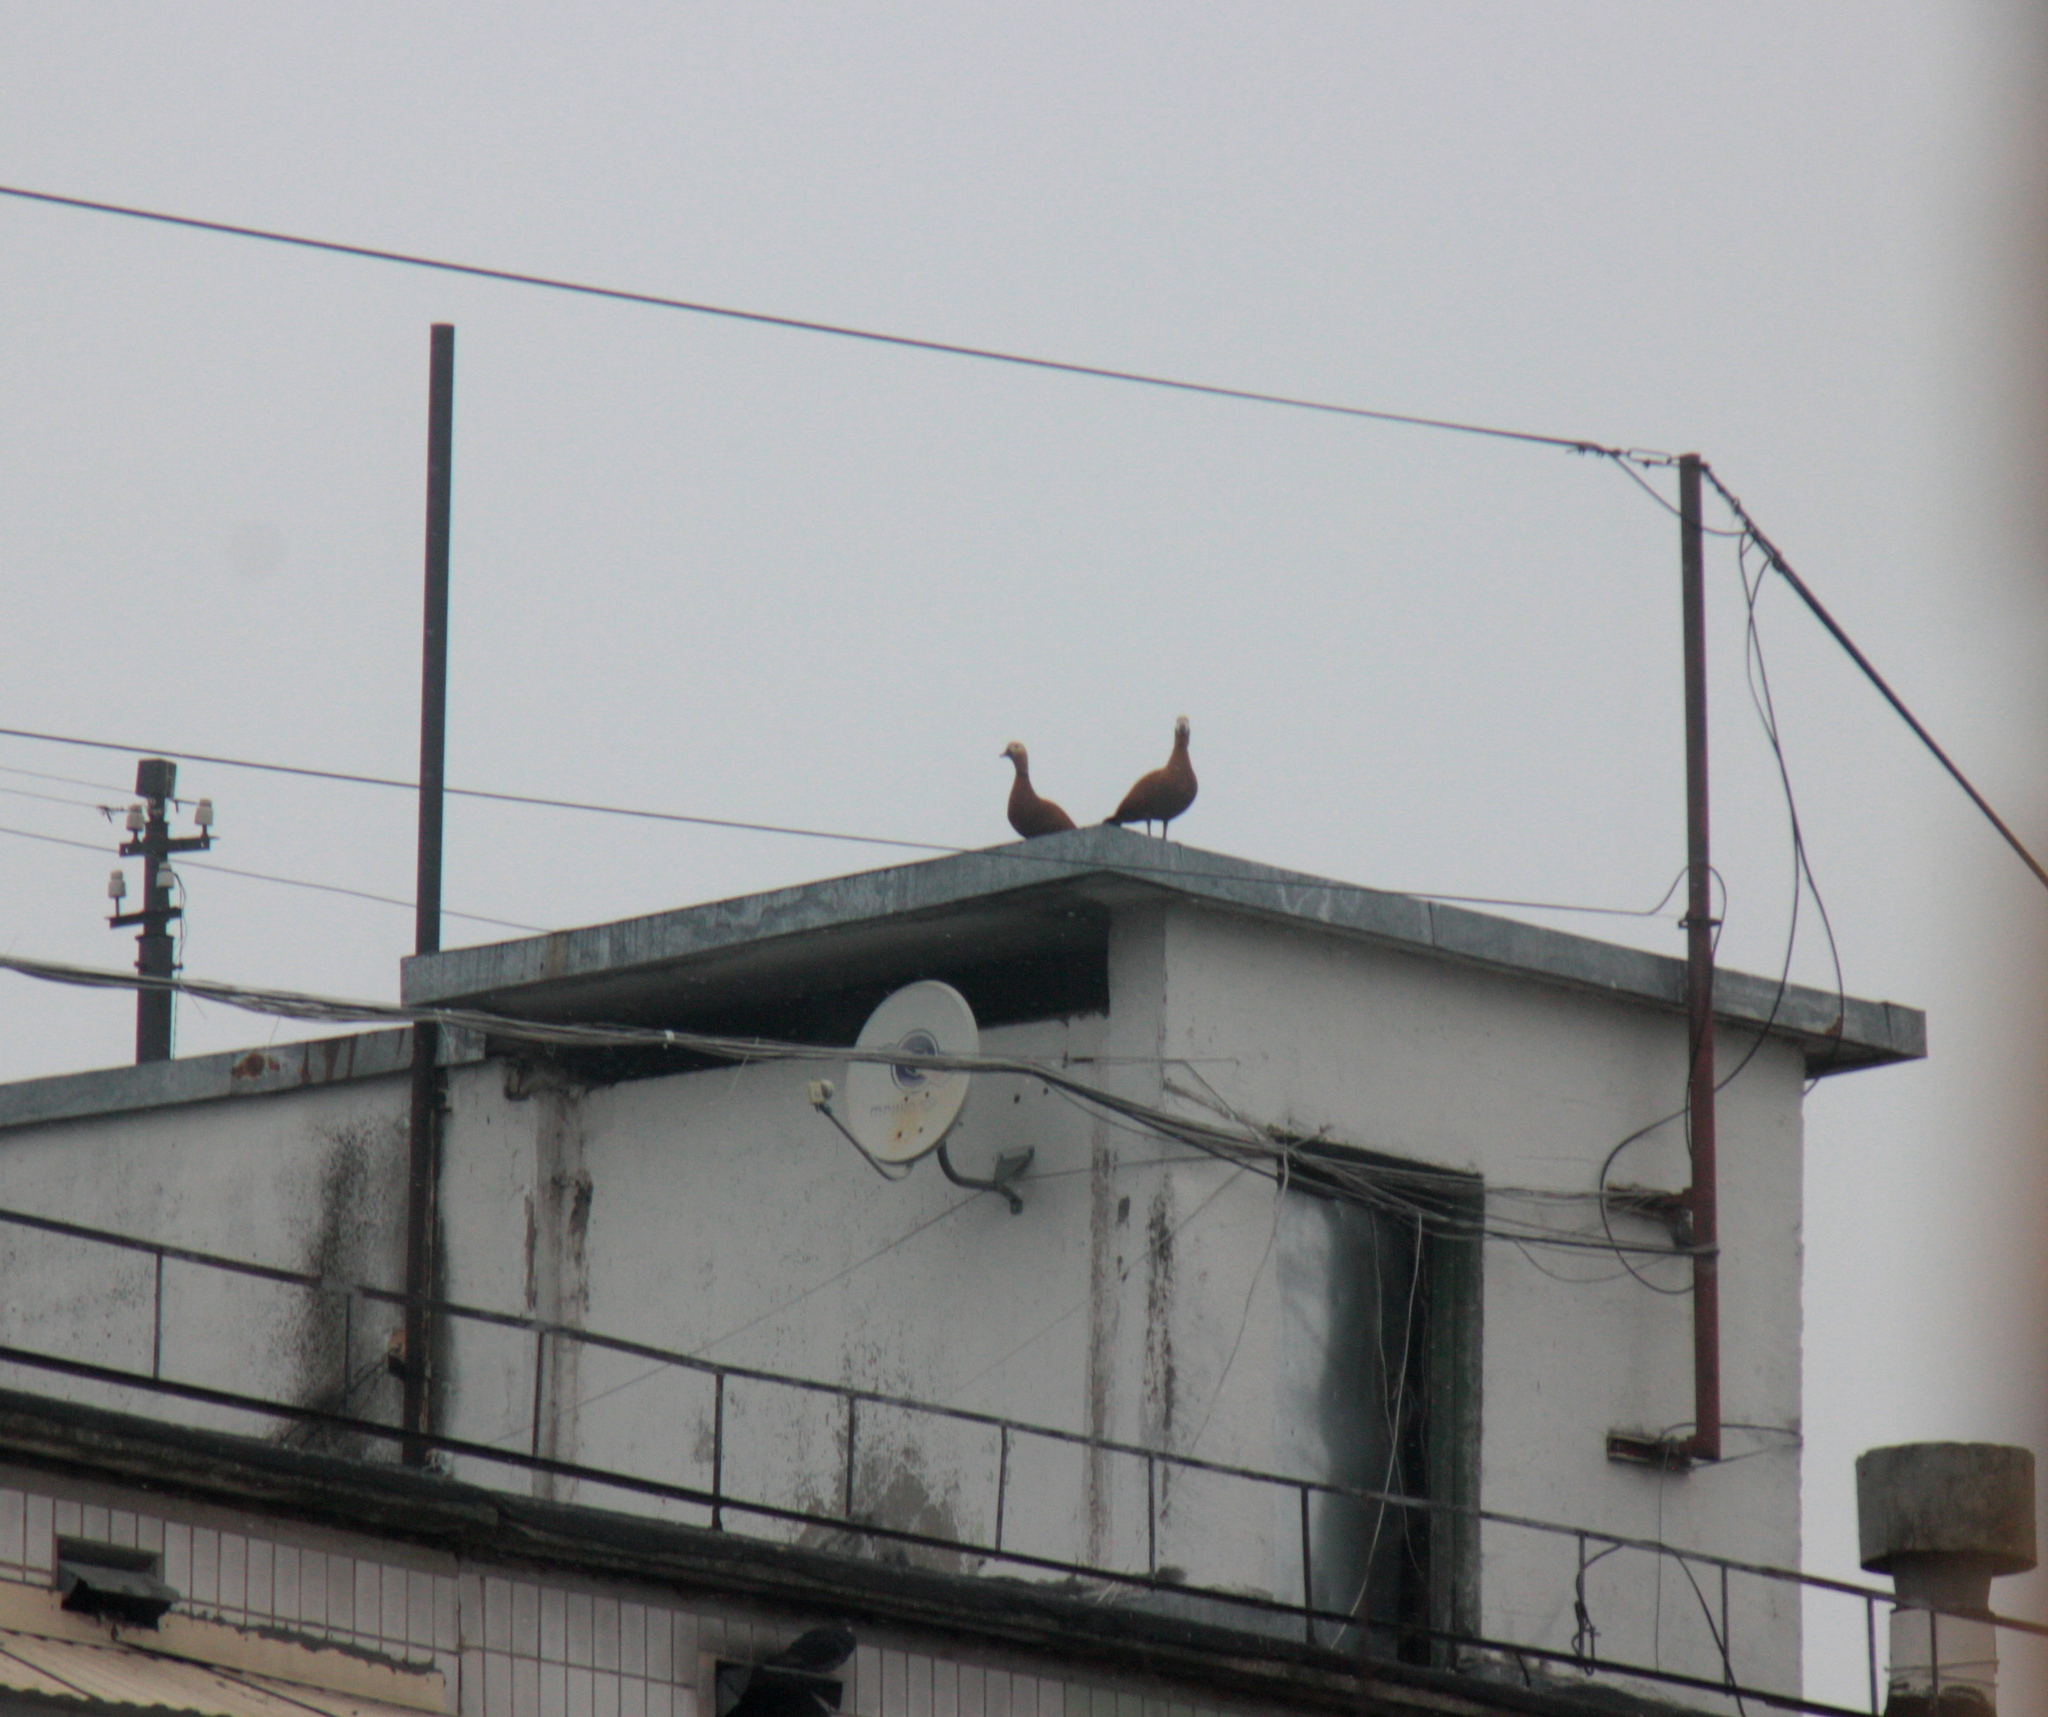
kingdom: Animalia
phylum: Chordata
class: Aves
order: Anseriformes
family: Anatidae
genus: Tadorna
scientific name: Tadorna ferruginea
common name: Ruddy shelduck
